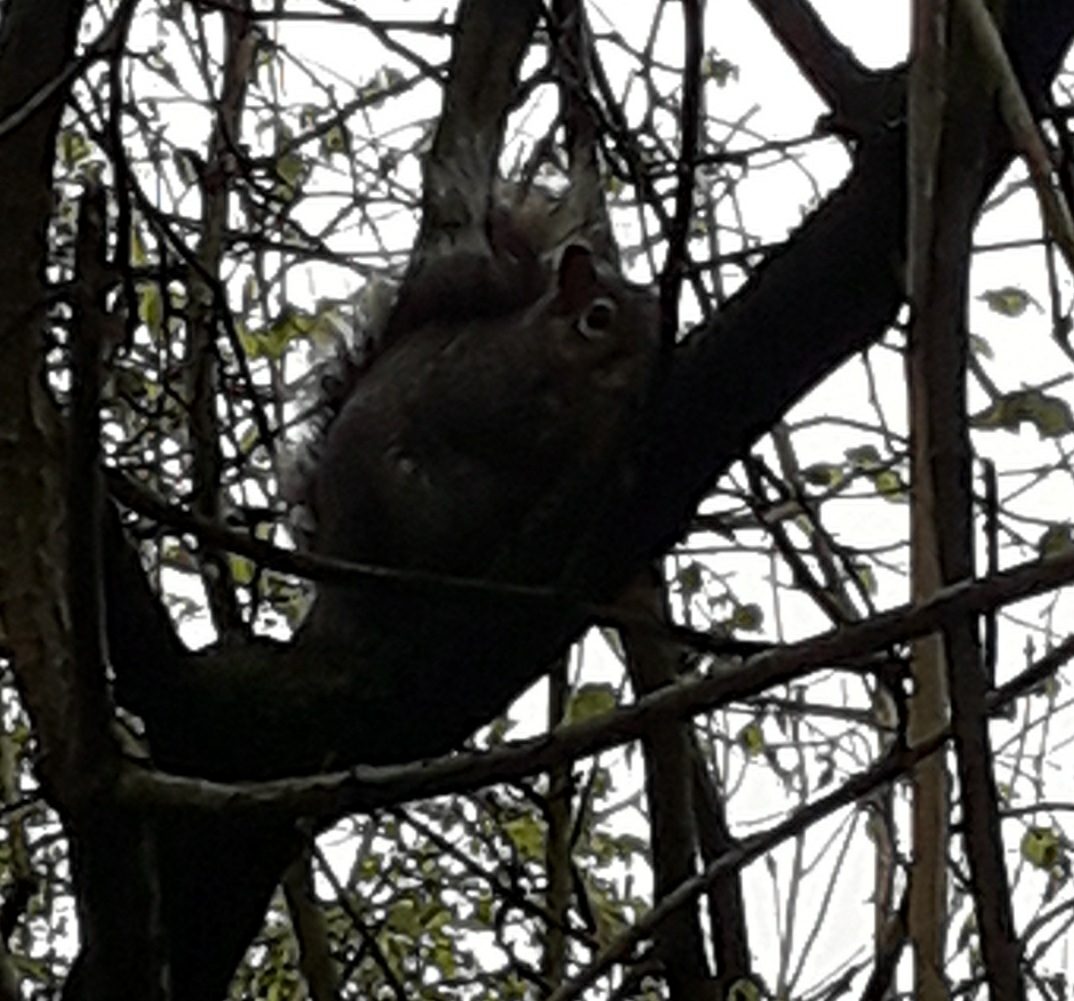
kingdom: Animalia
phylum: Chordata
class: Mammalia
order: Rodentia
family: Sciuridae
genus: Sciurus
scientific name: Sciurus carolinensis
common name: Eastern gray squirrel
